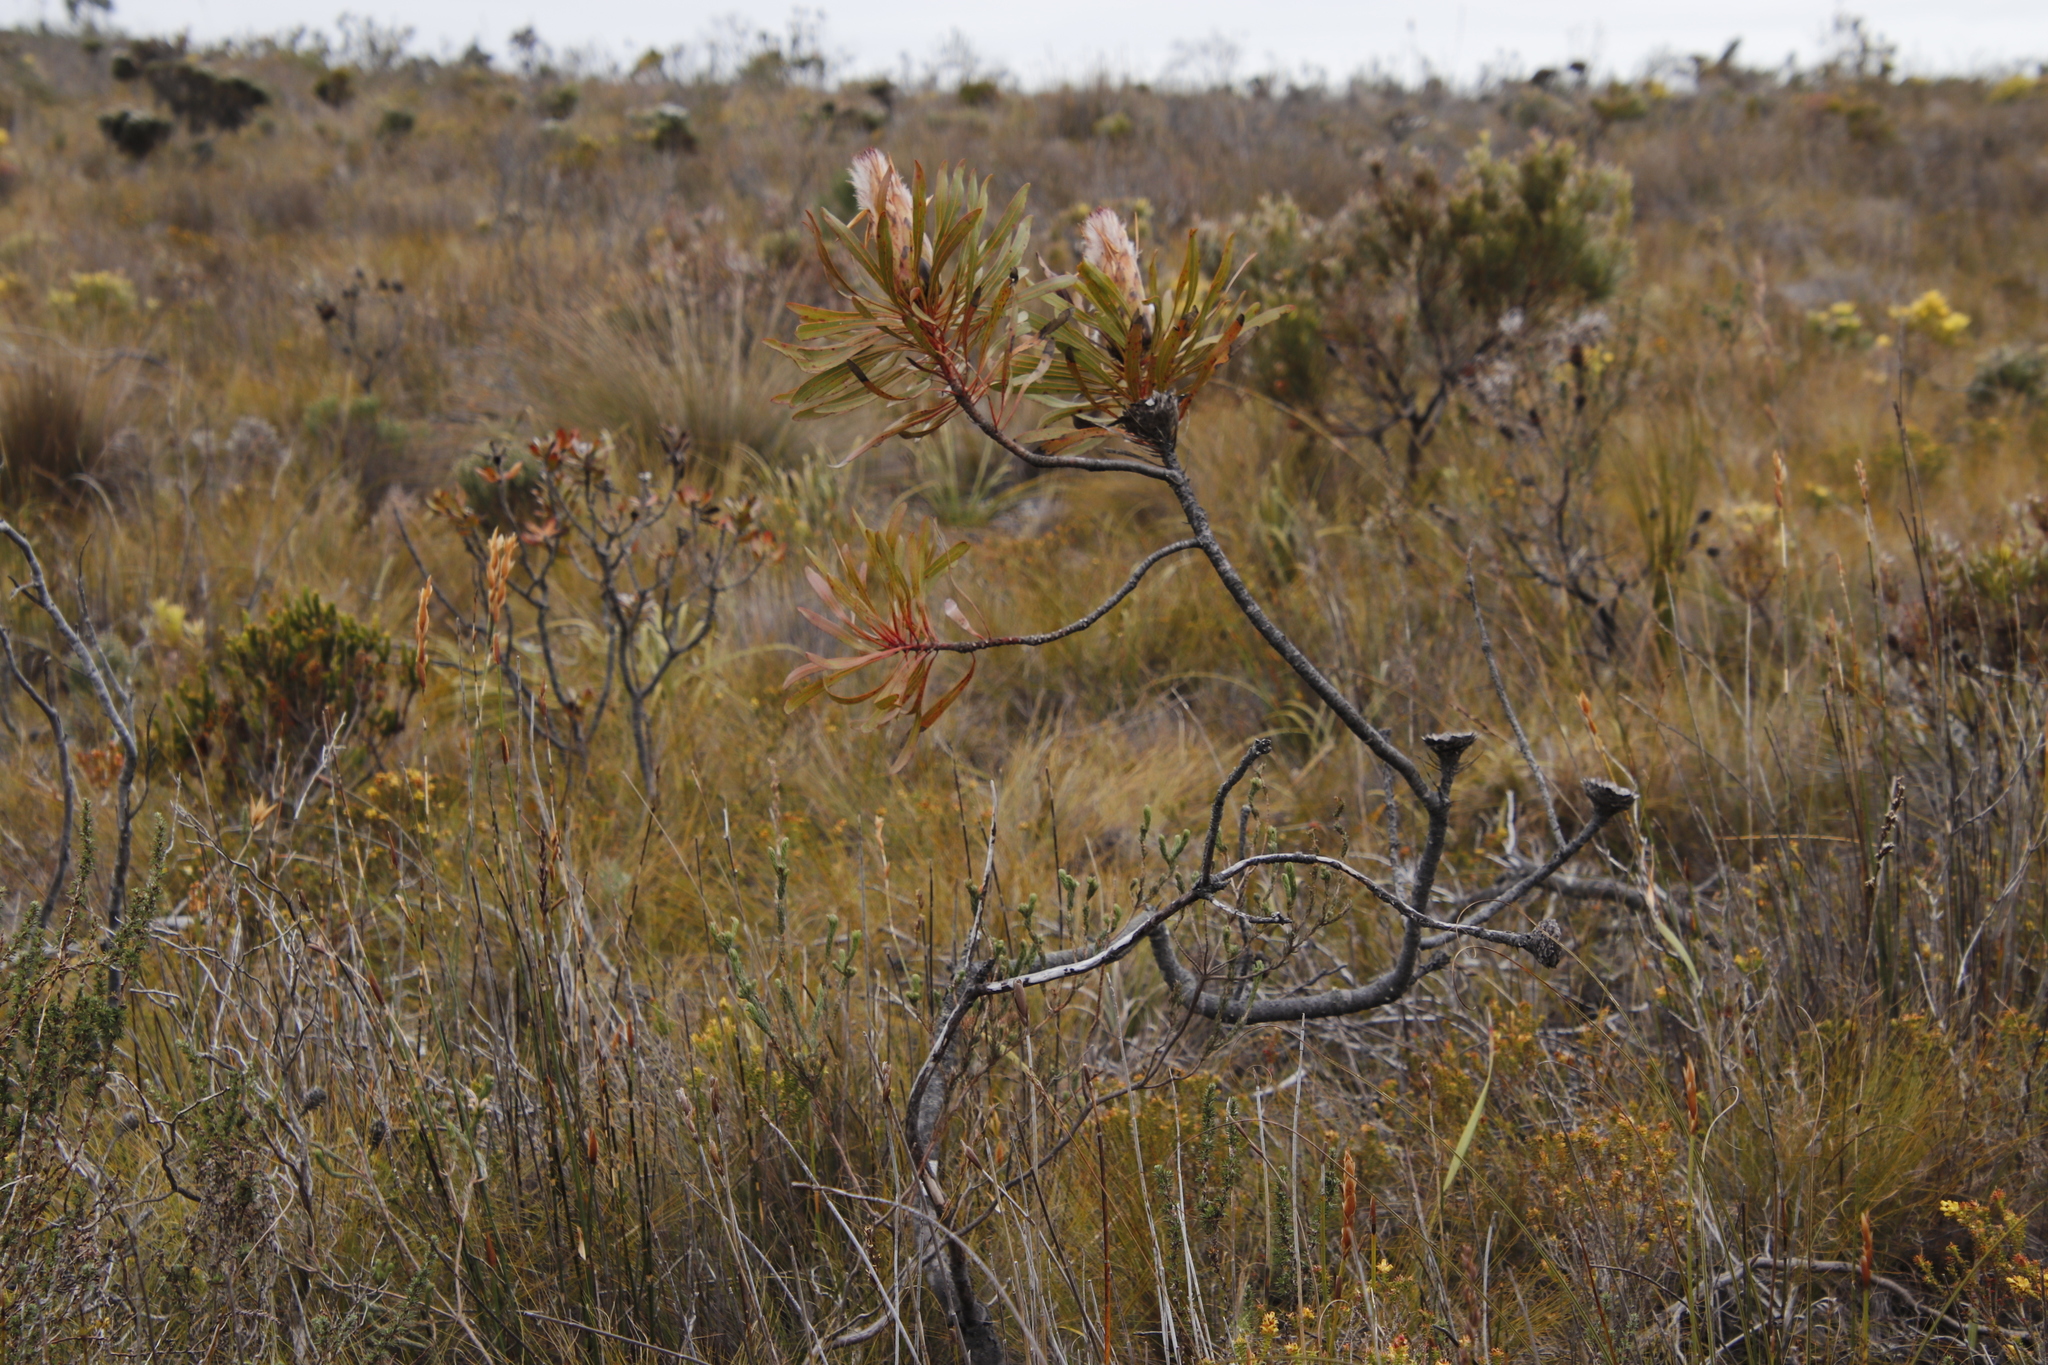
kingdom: Plantae
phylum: Tracheophyta
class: Magnoliopsida
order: Proteales
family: Proteaceae
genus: Protea
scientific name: Protea longifolia
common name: Long-leaf sugarbush
